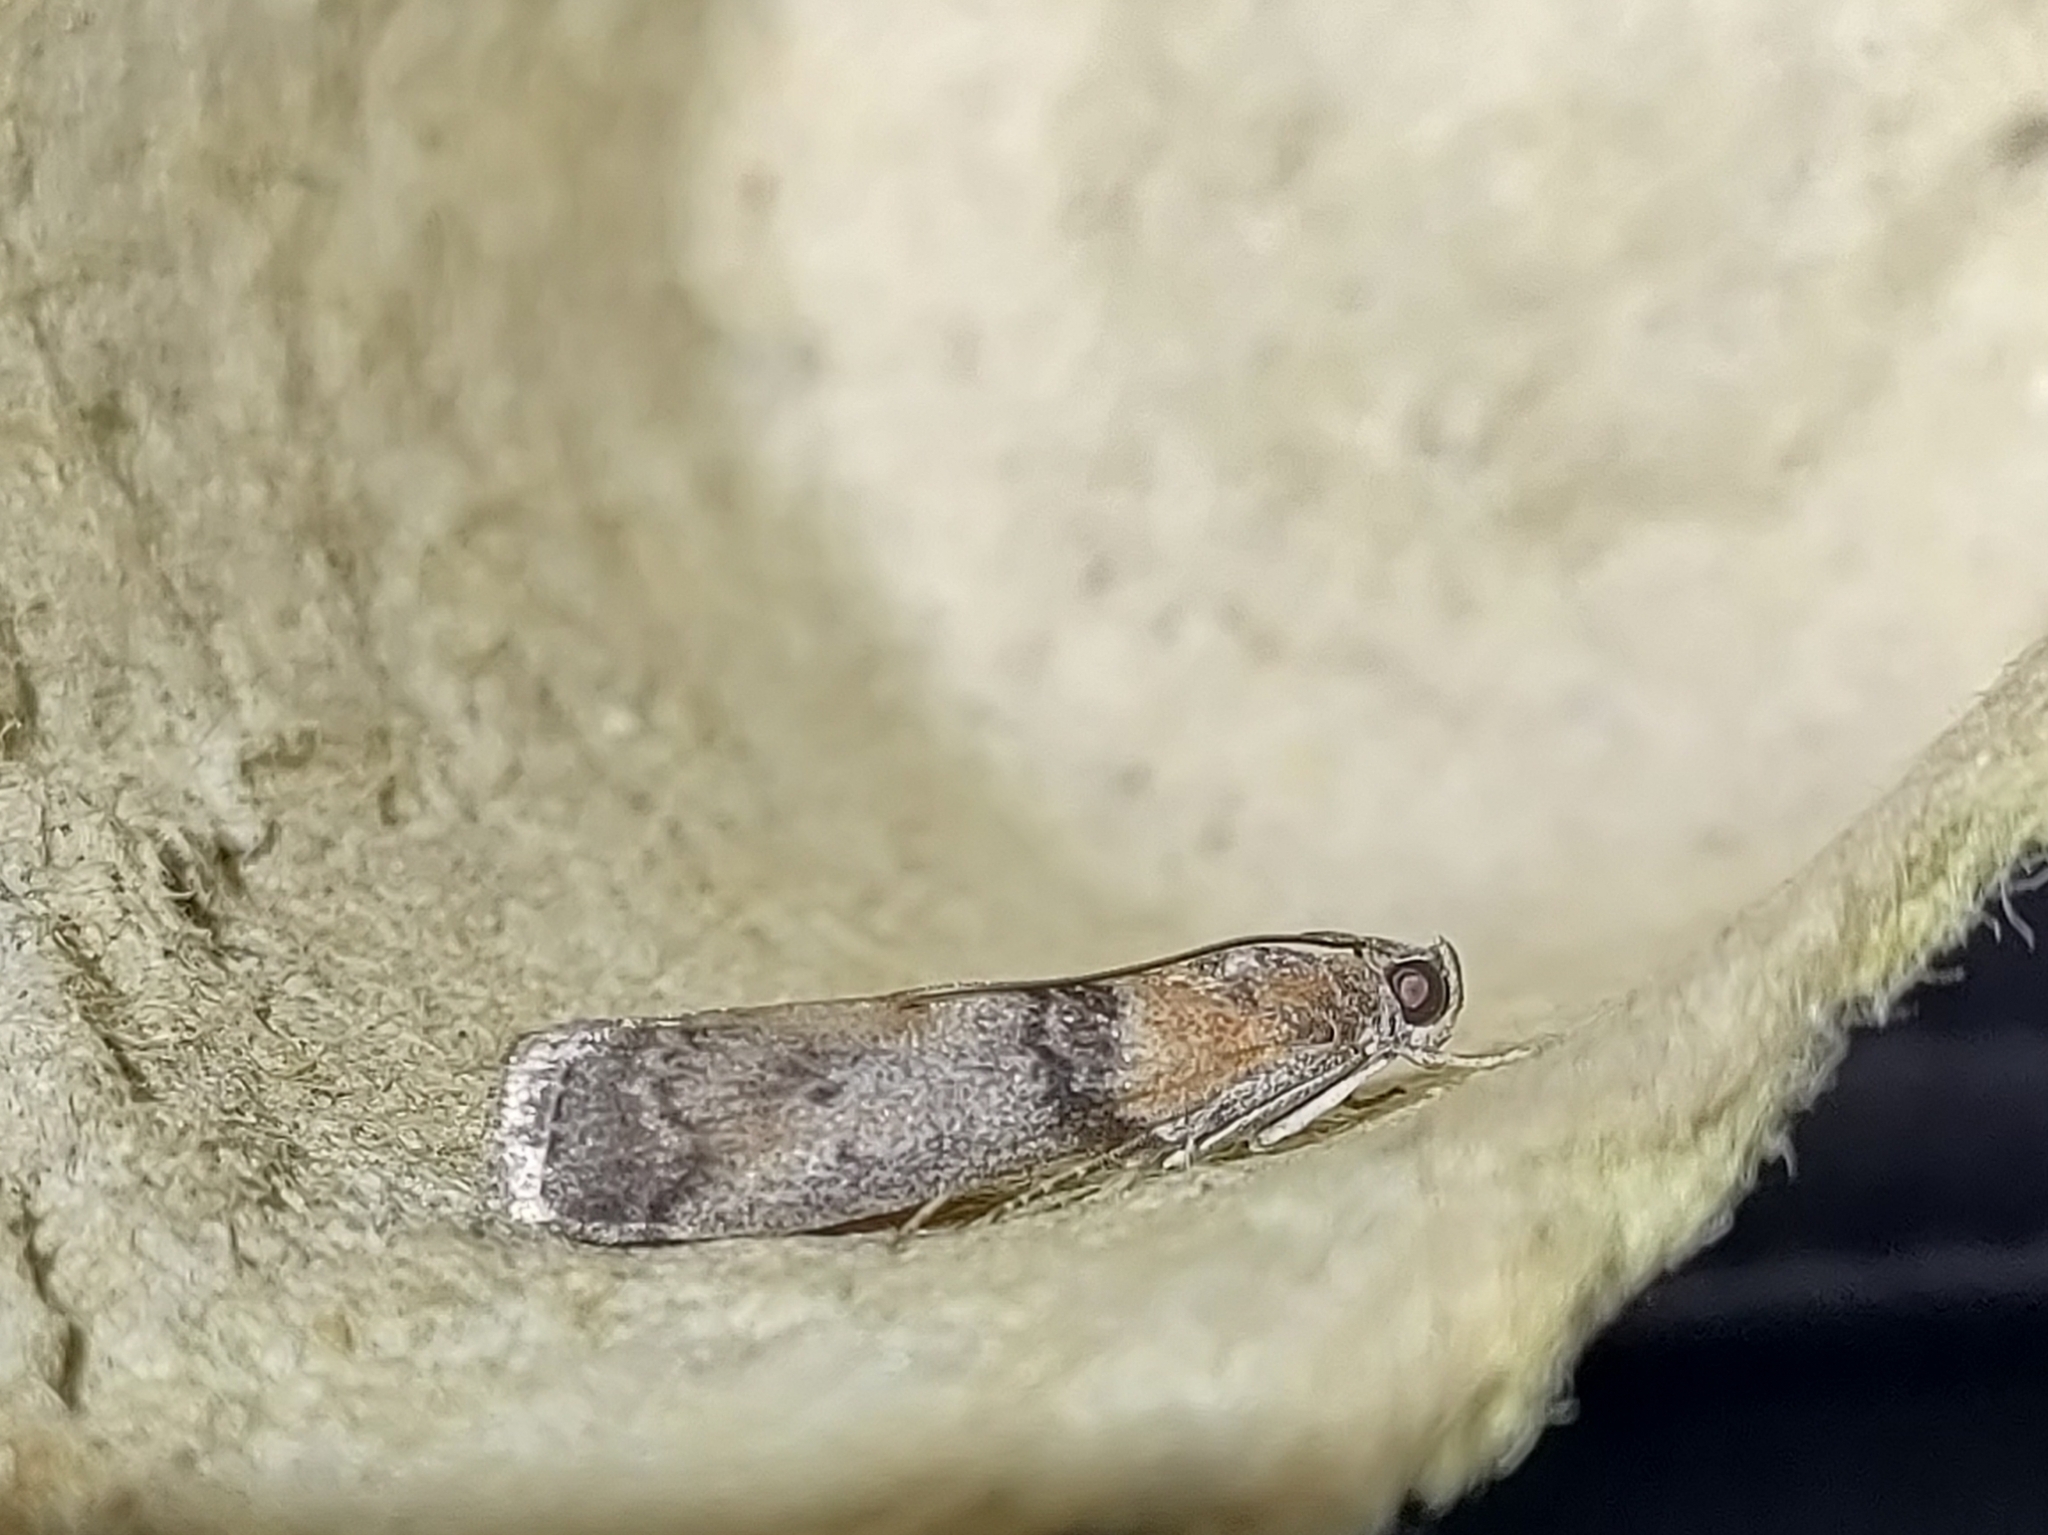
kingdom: Animalia
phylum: Arthropoda
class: Insecta
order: Lepidoptera
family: Pyralidae
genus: Sciota
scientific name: Sciota adelphella
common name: Willow knot-horn
